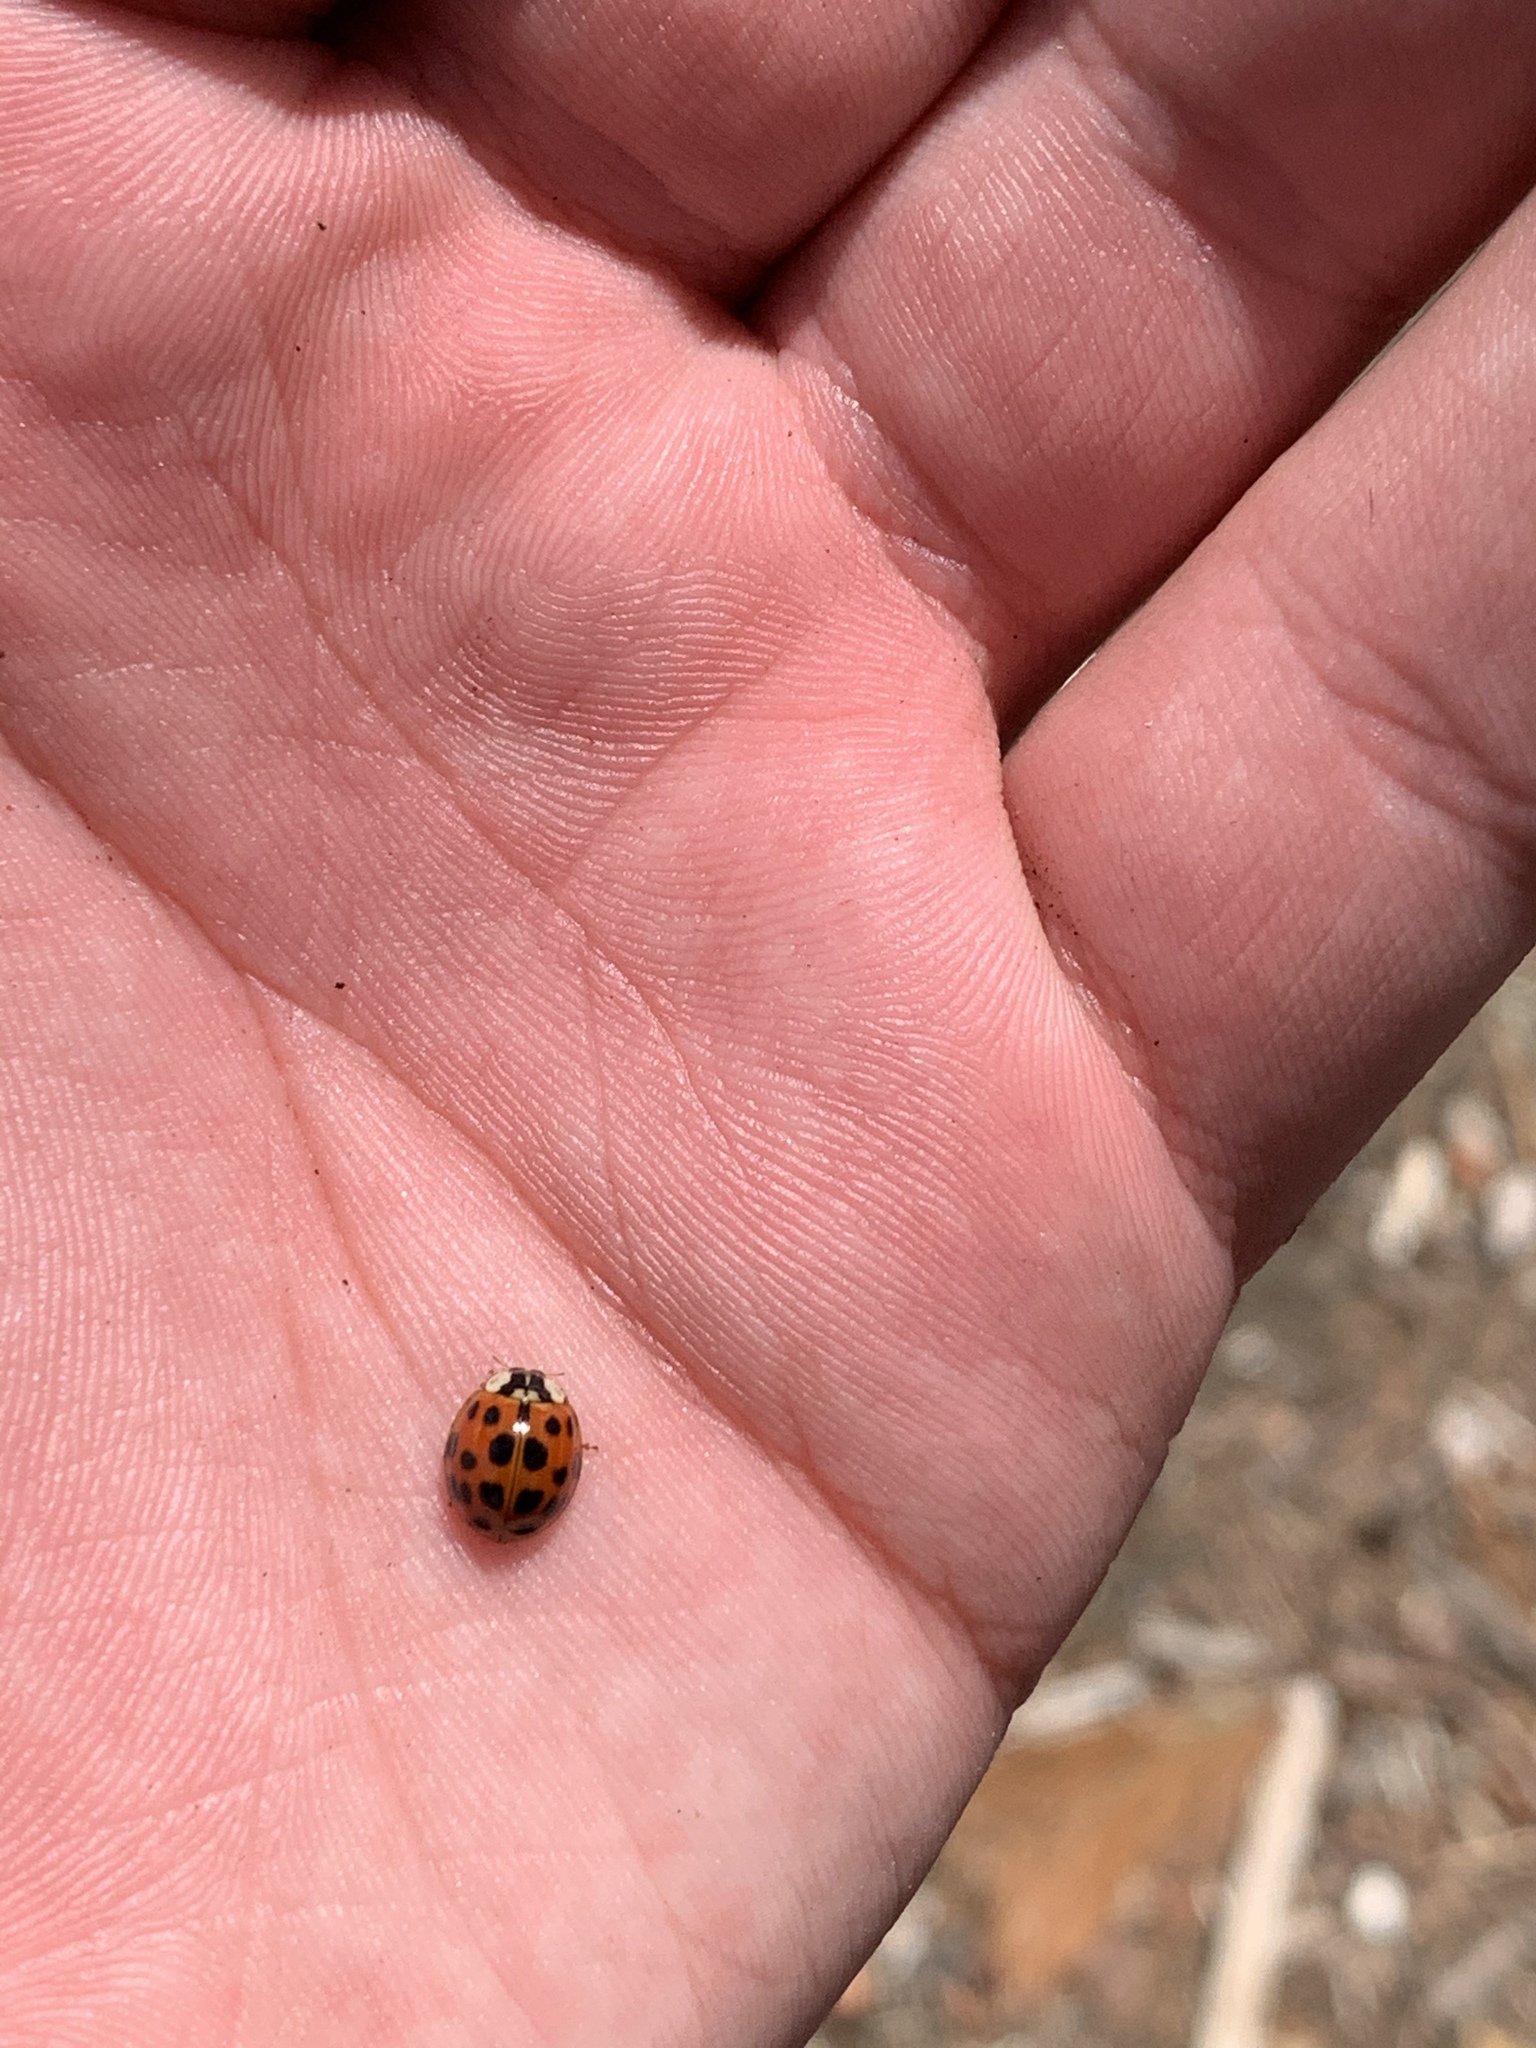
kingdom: Animalia
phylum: Arthropoda
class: Insecta
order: Coleoptera
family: Coccinellidae
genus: Harmonia
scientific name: Harmonia axyridis
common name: Harlequin ladybird
